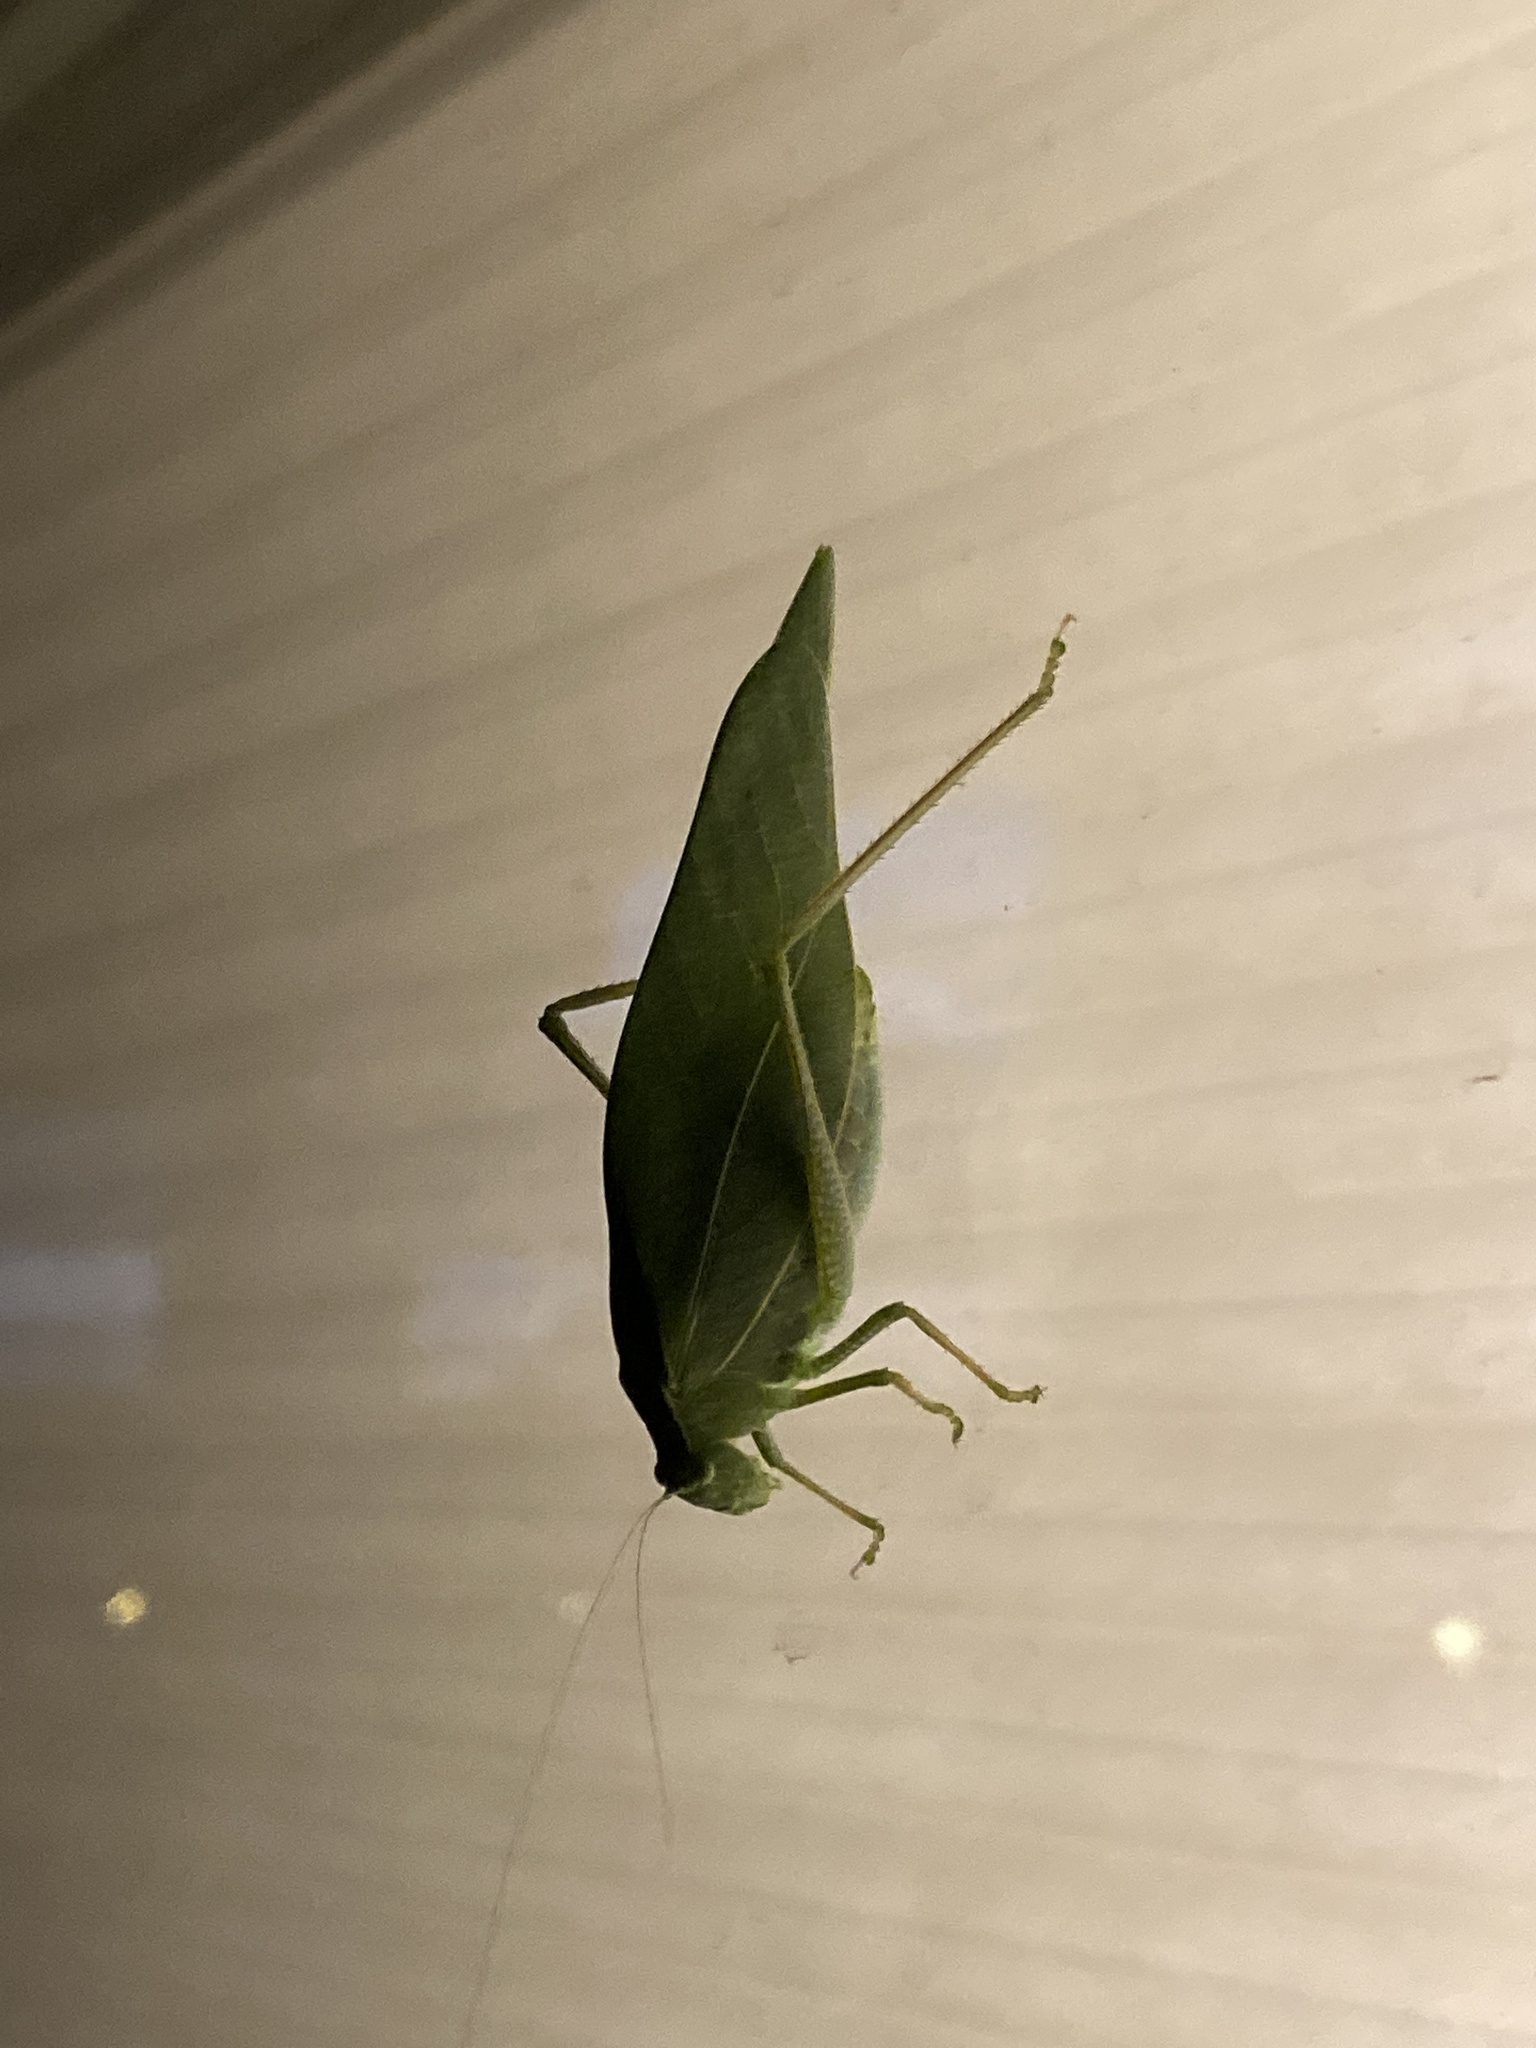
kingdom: Animalia
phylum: Arthropoda
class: Insecta
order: Orthoptera
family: Tettigoniidae
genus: Microcentrum
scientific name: Microcentrum rhombifolium
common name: Broad-winged katydid
